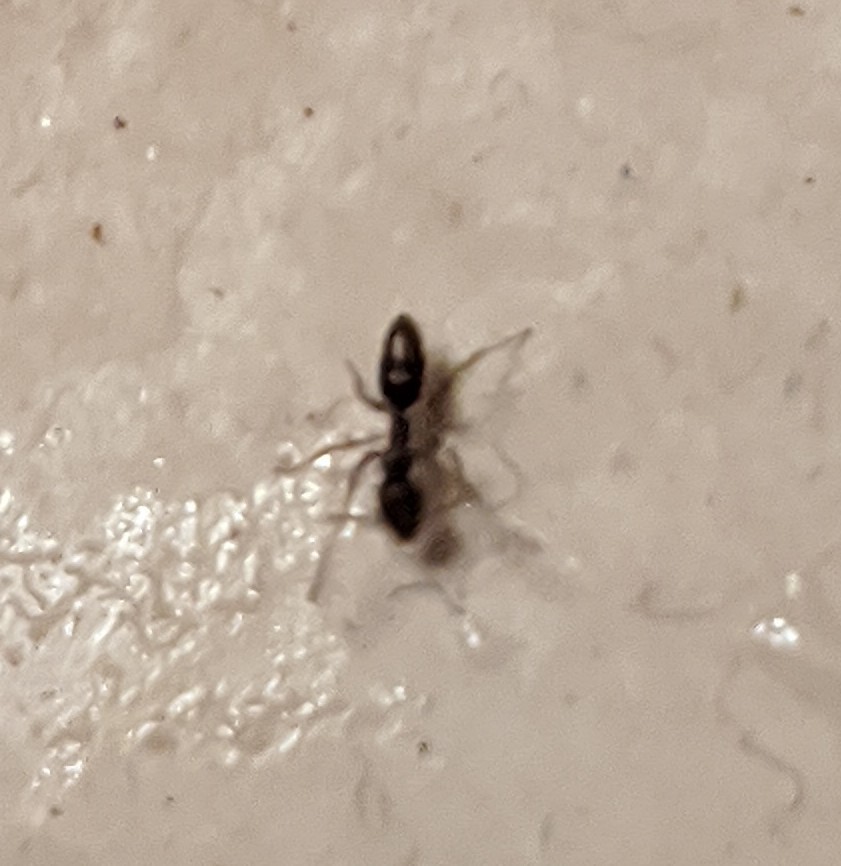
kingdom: Animalia
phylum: Arthropoda
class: Insecta
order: Hymenoptera
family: Formicidae
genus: Tapinoma
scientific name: Tapinoma sessile
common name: Odorous house ant
